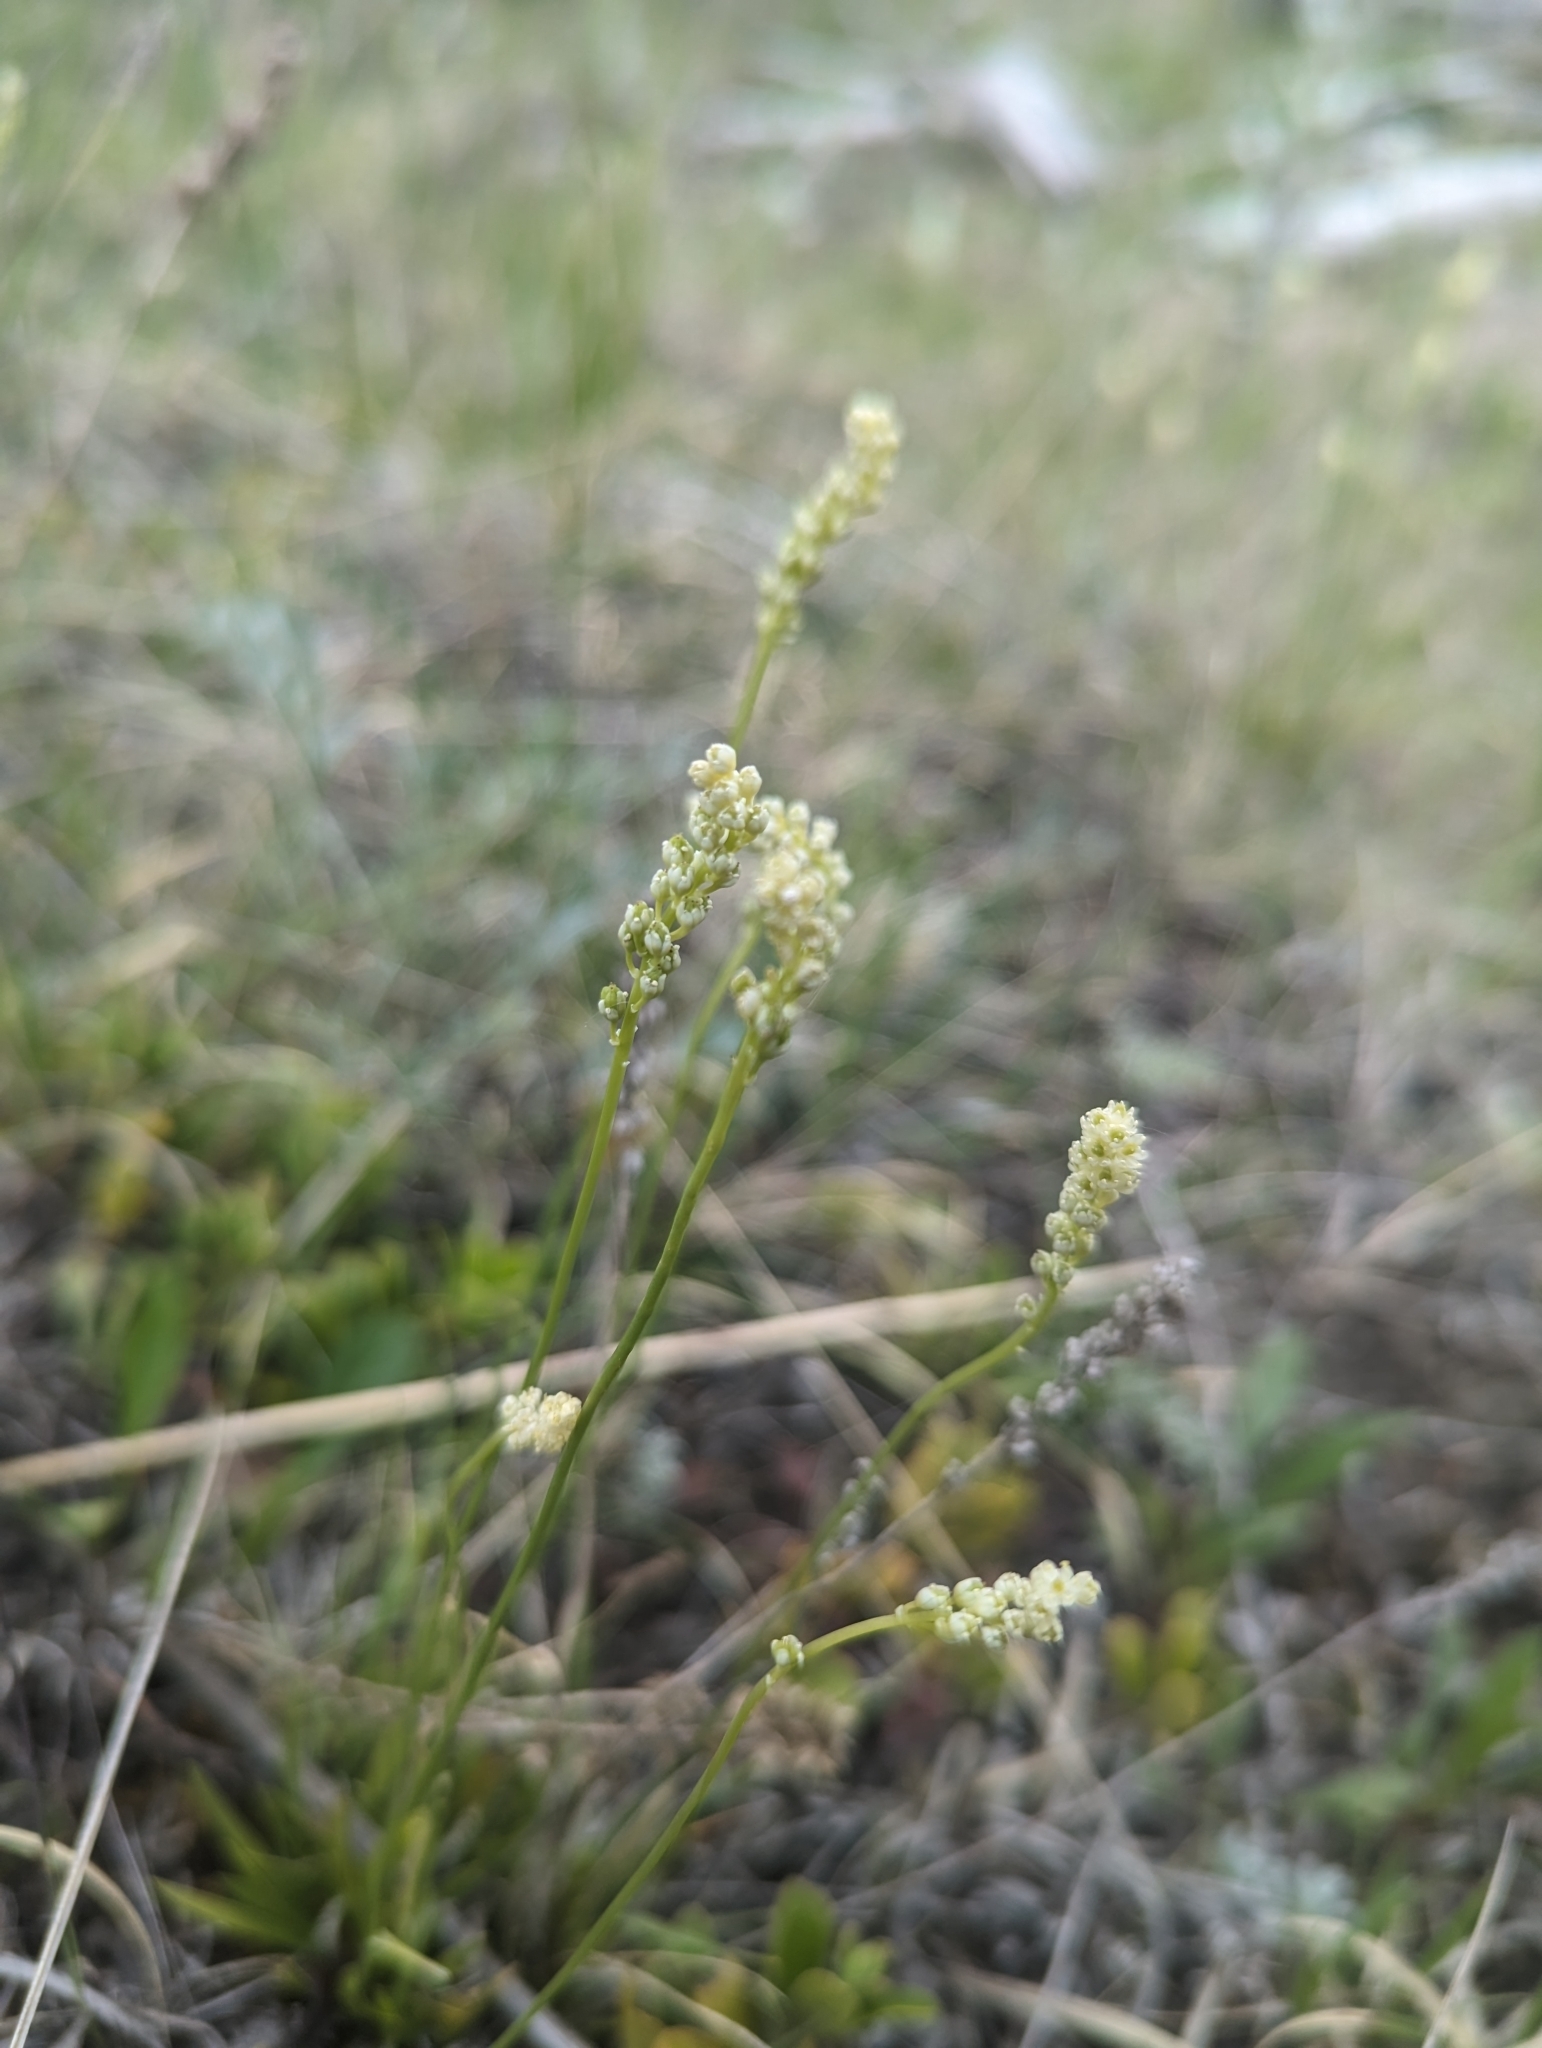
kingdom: Plantae
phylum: Tracheophyta
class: Liliopsida
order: Alismatales
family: Tofieldiaceae
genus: Tofieldia
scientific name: Tofieldia pusilla
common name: Scottish false asphodel
